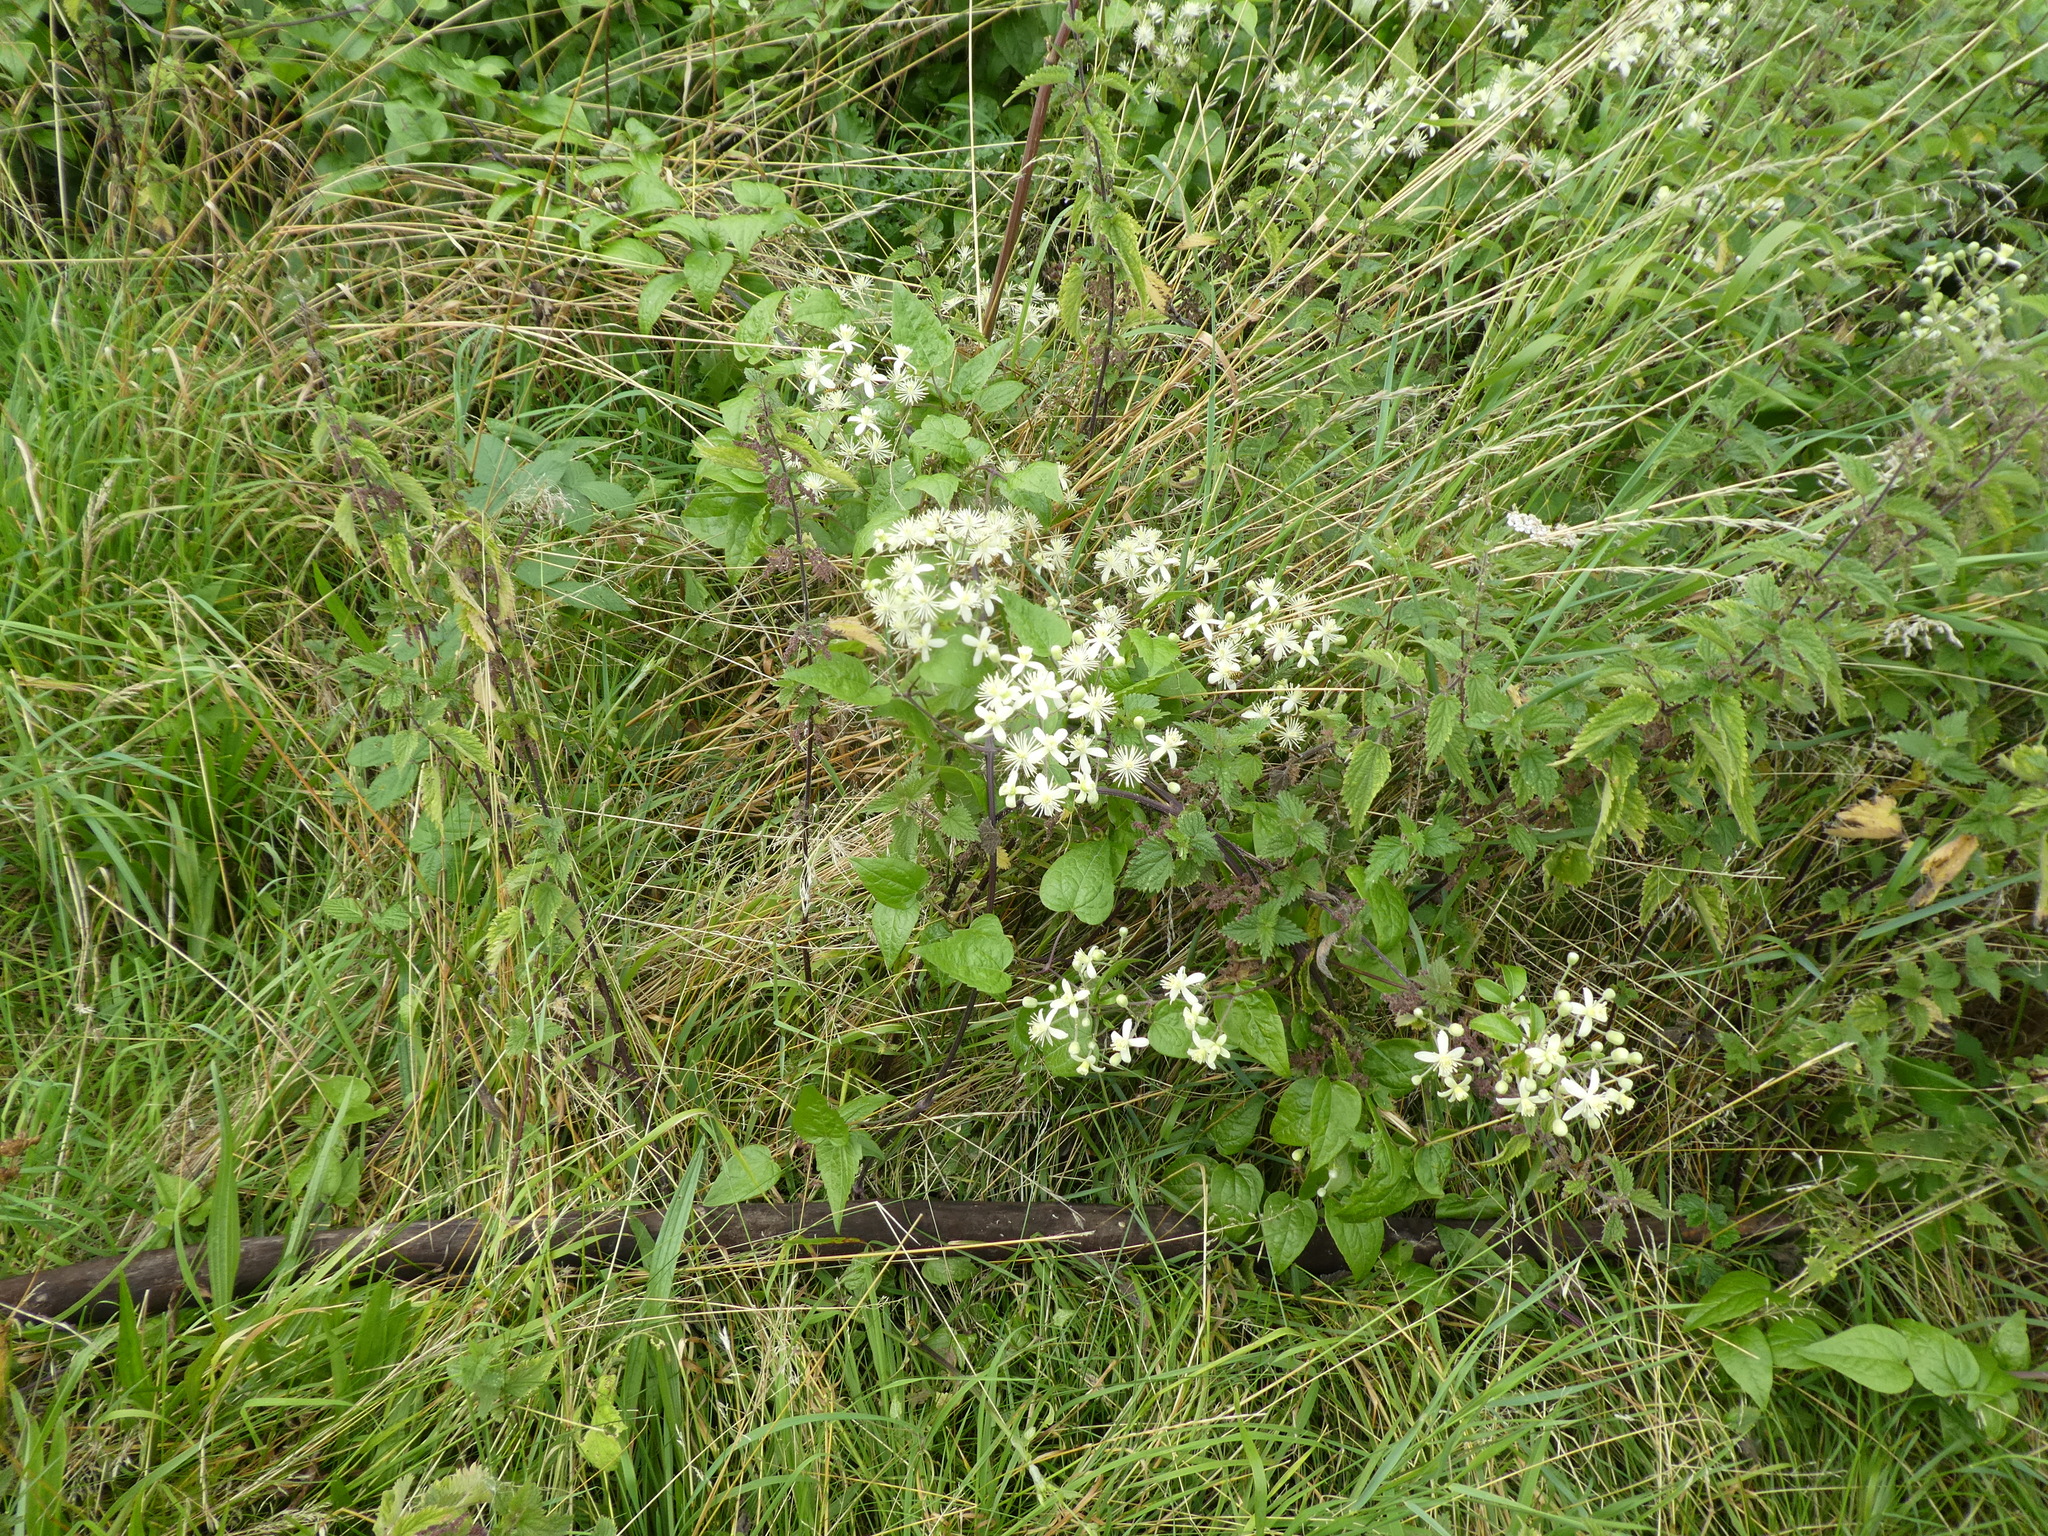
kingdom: Plantae
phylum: Tracheophyta
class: Magnoliopsida
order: Ranunculales
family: Ranunculaceae
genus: Clematis
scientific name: Clematis vitalba
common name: Evergreen clematis
